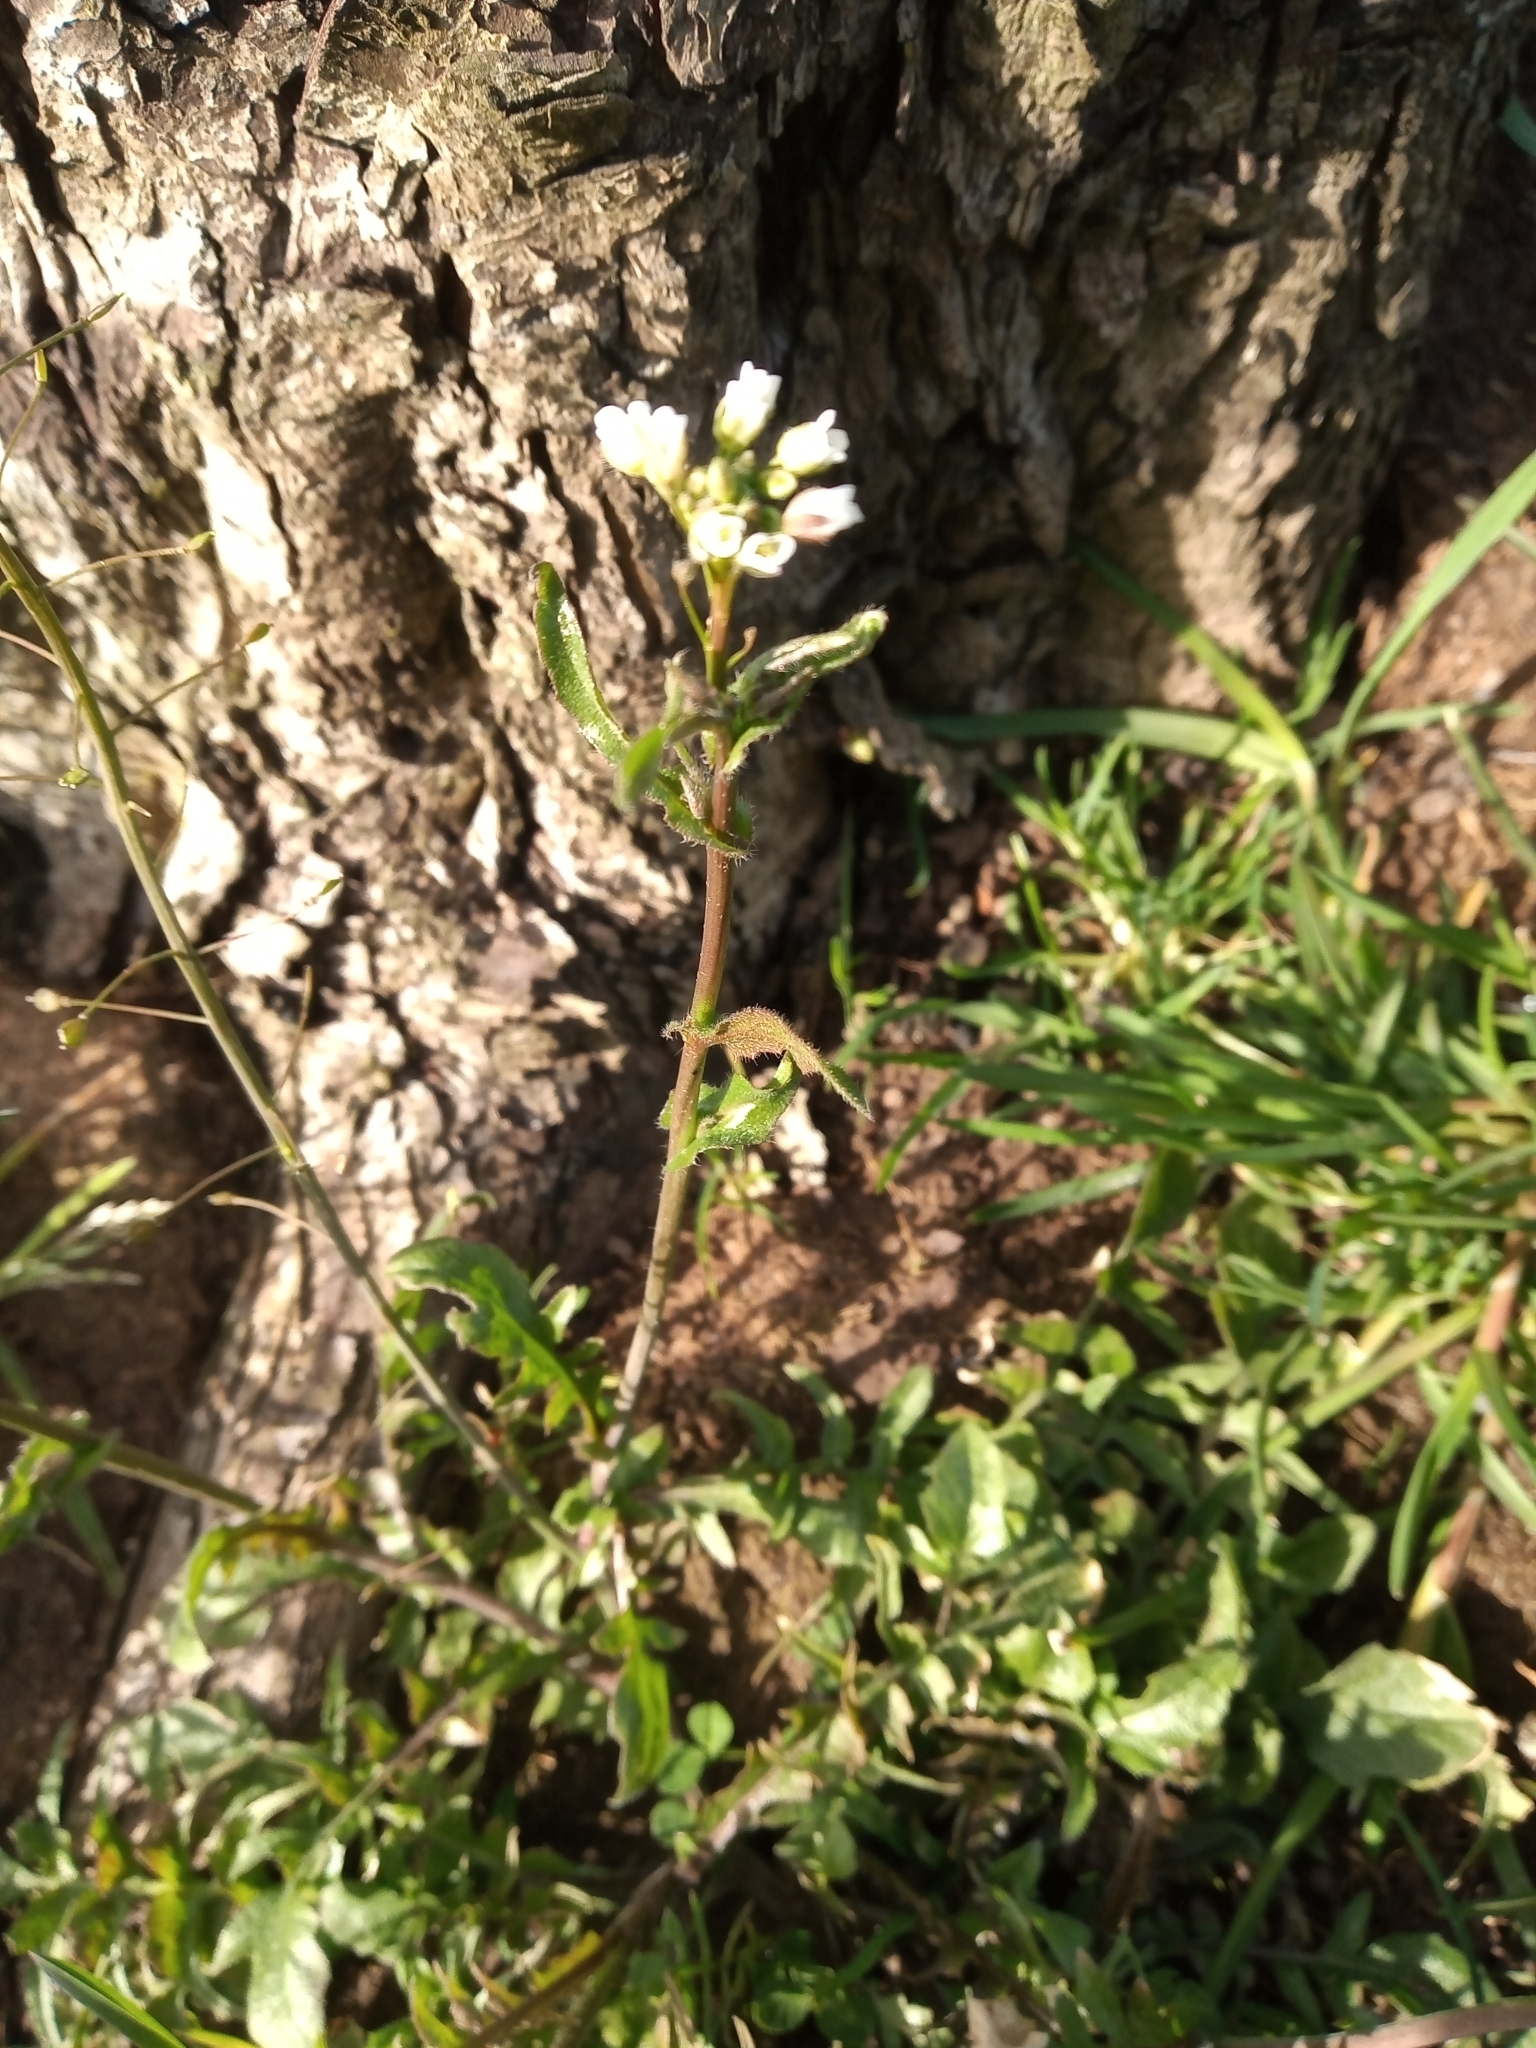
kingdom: Plantae
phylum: Tracheophyta
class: Magnoliopsida
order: Brassicales
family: Brassicaceae
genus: Capsella
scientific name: Capsella bursa-pastoris
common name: Shepherd's purse
